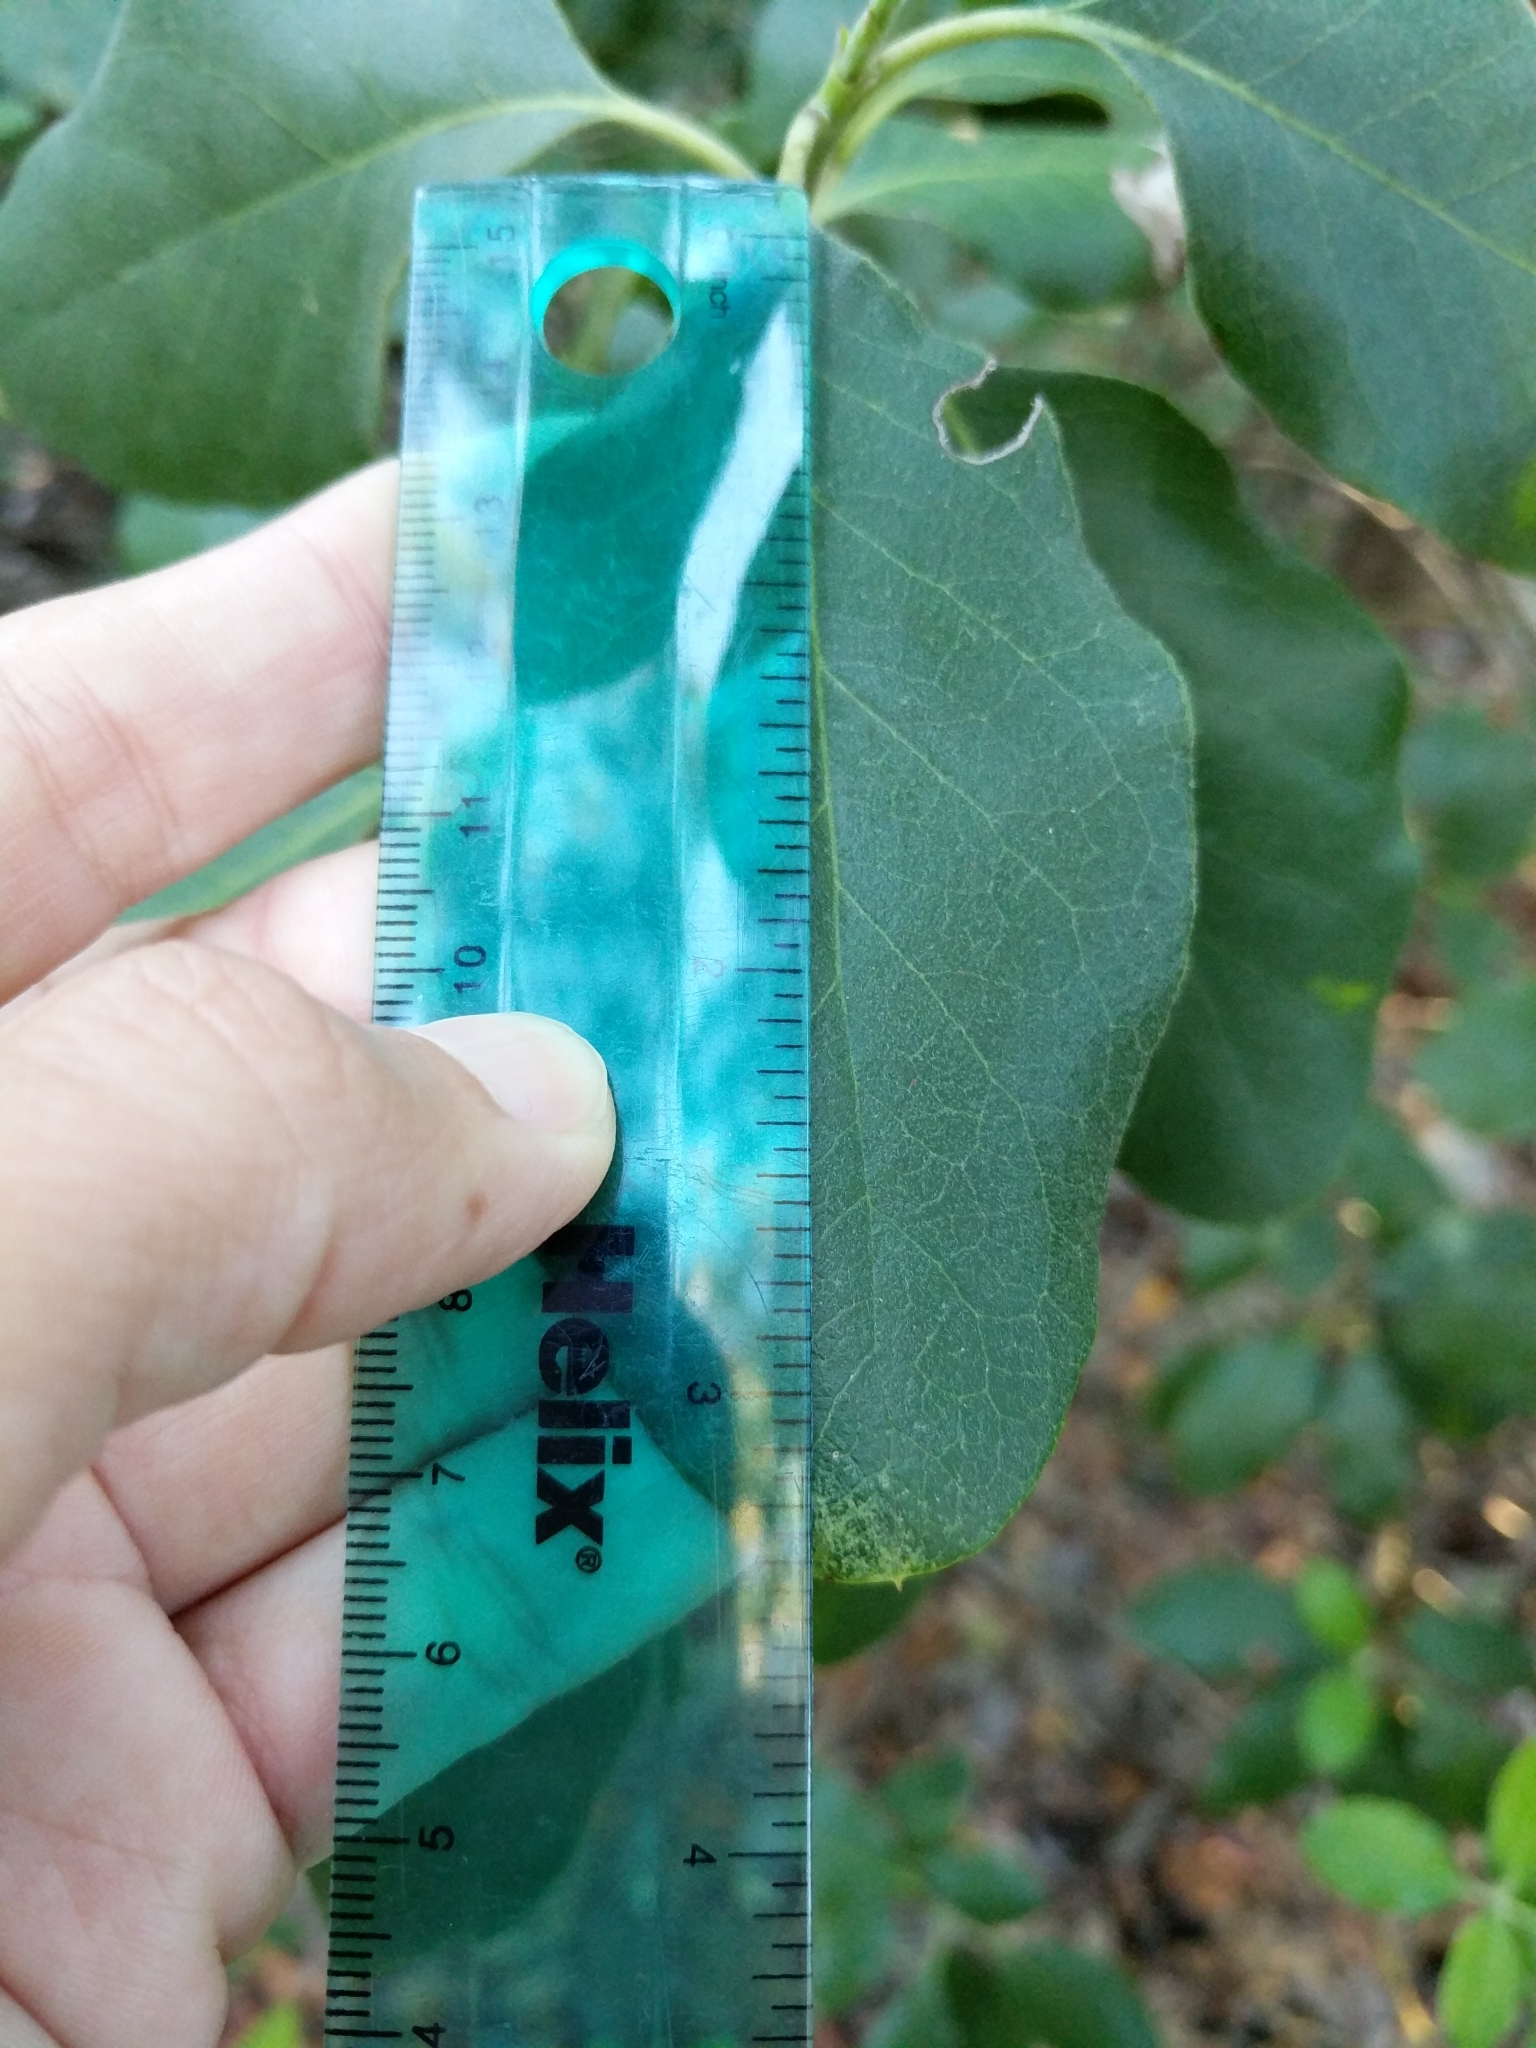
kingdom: Plantae
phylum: Tracheophyta
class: Magnoliopsida
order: Garryales
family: Garryaceae
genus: Garrya
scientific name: Garrya lindheimeri
